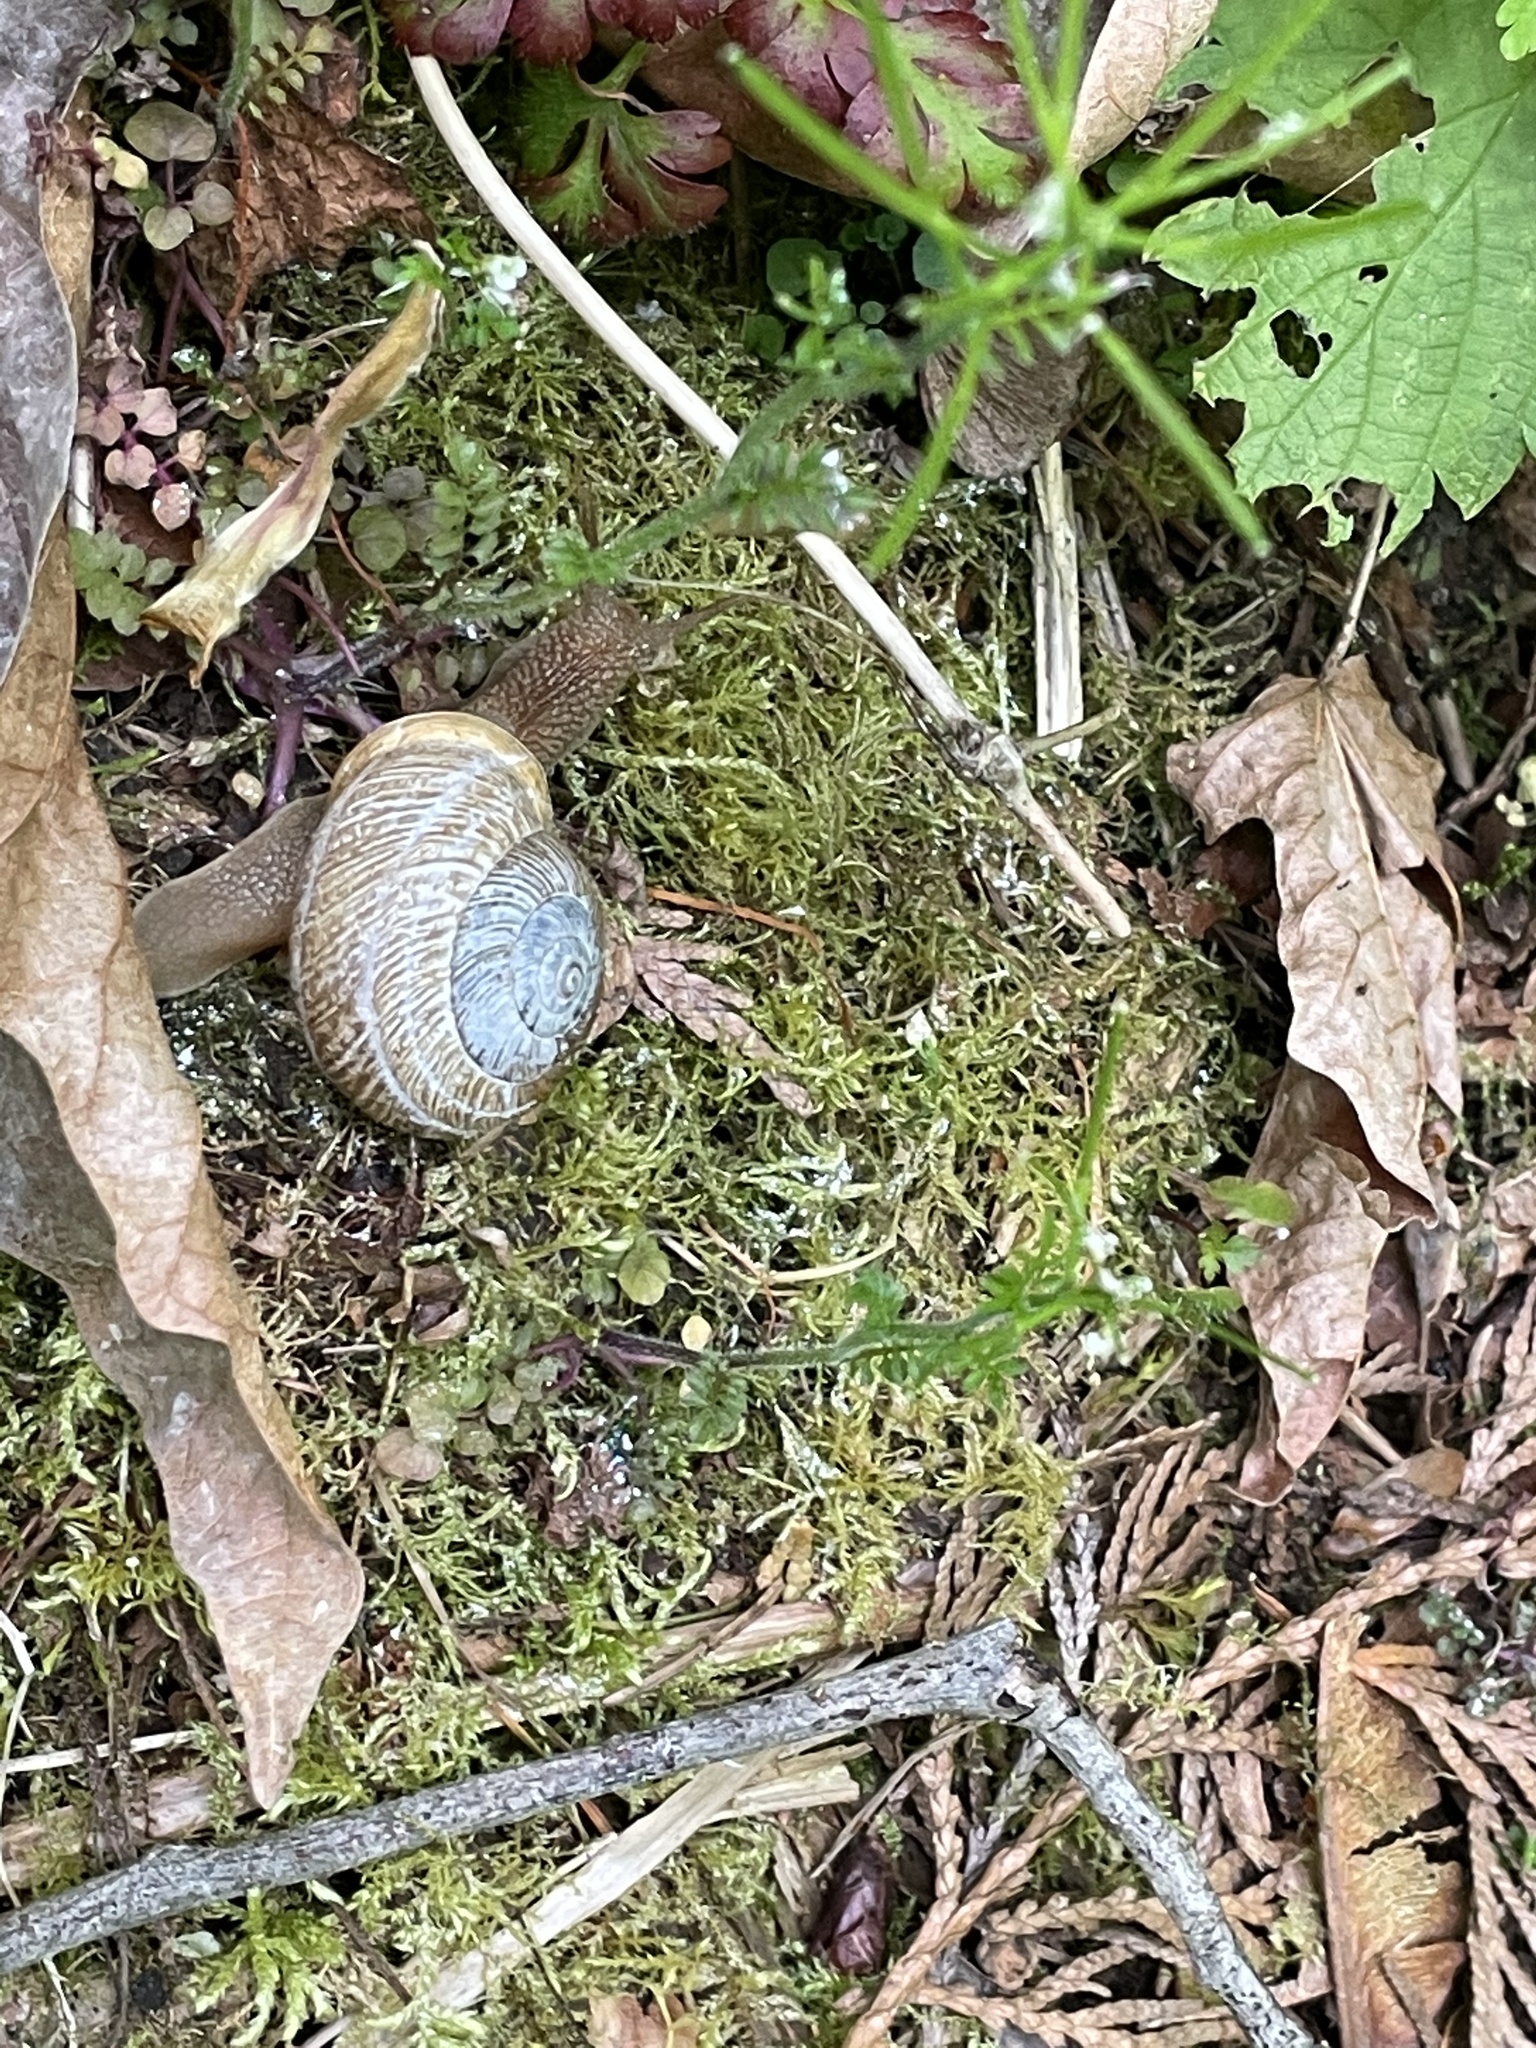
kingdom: Animalia
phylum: Mollusca
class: Gastropoda
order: Stylommatophora
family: Polygyridae
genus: Allogona
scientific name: Allogona townsendiana
